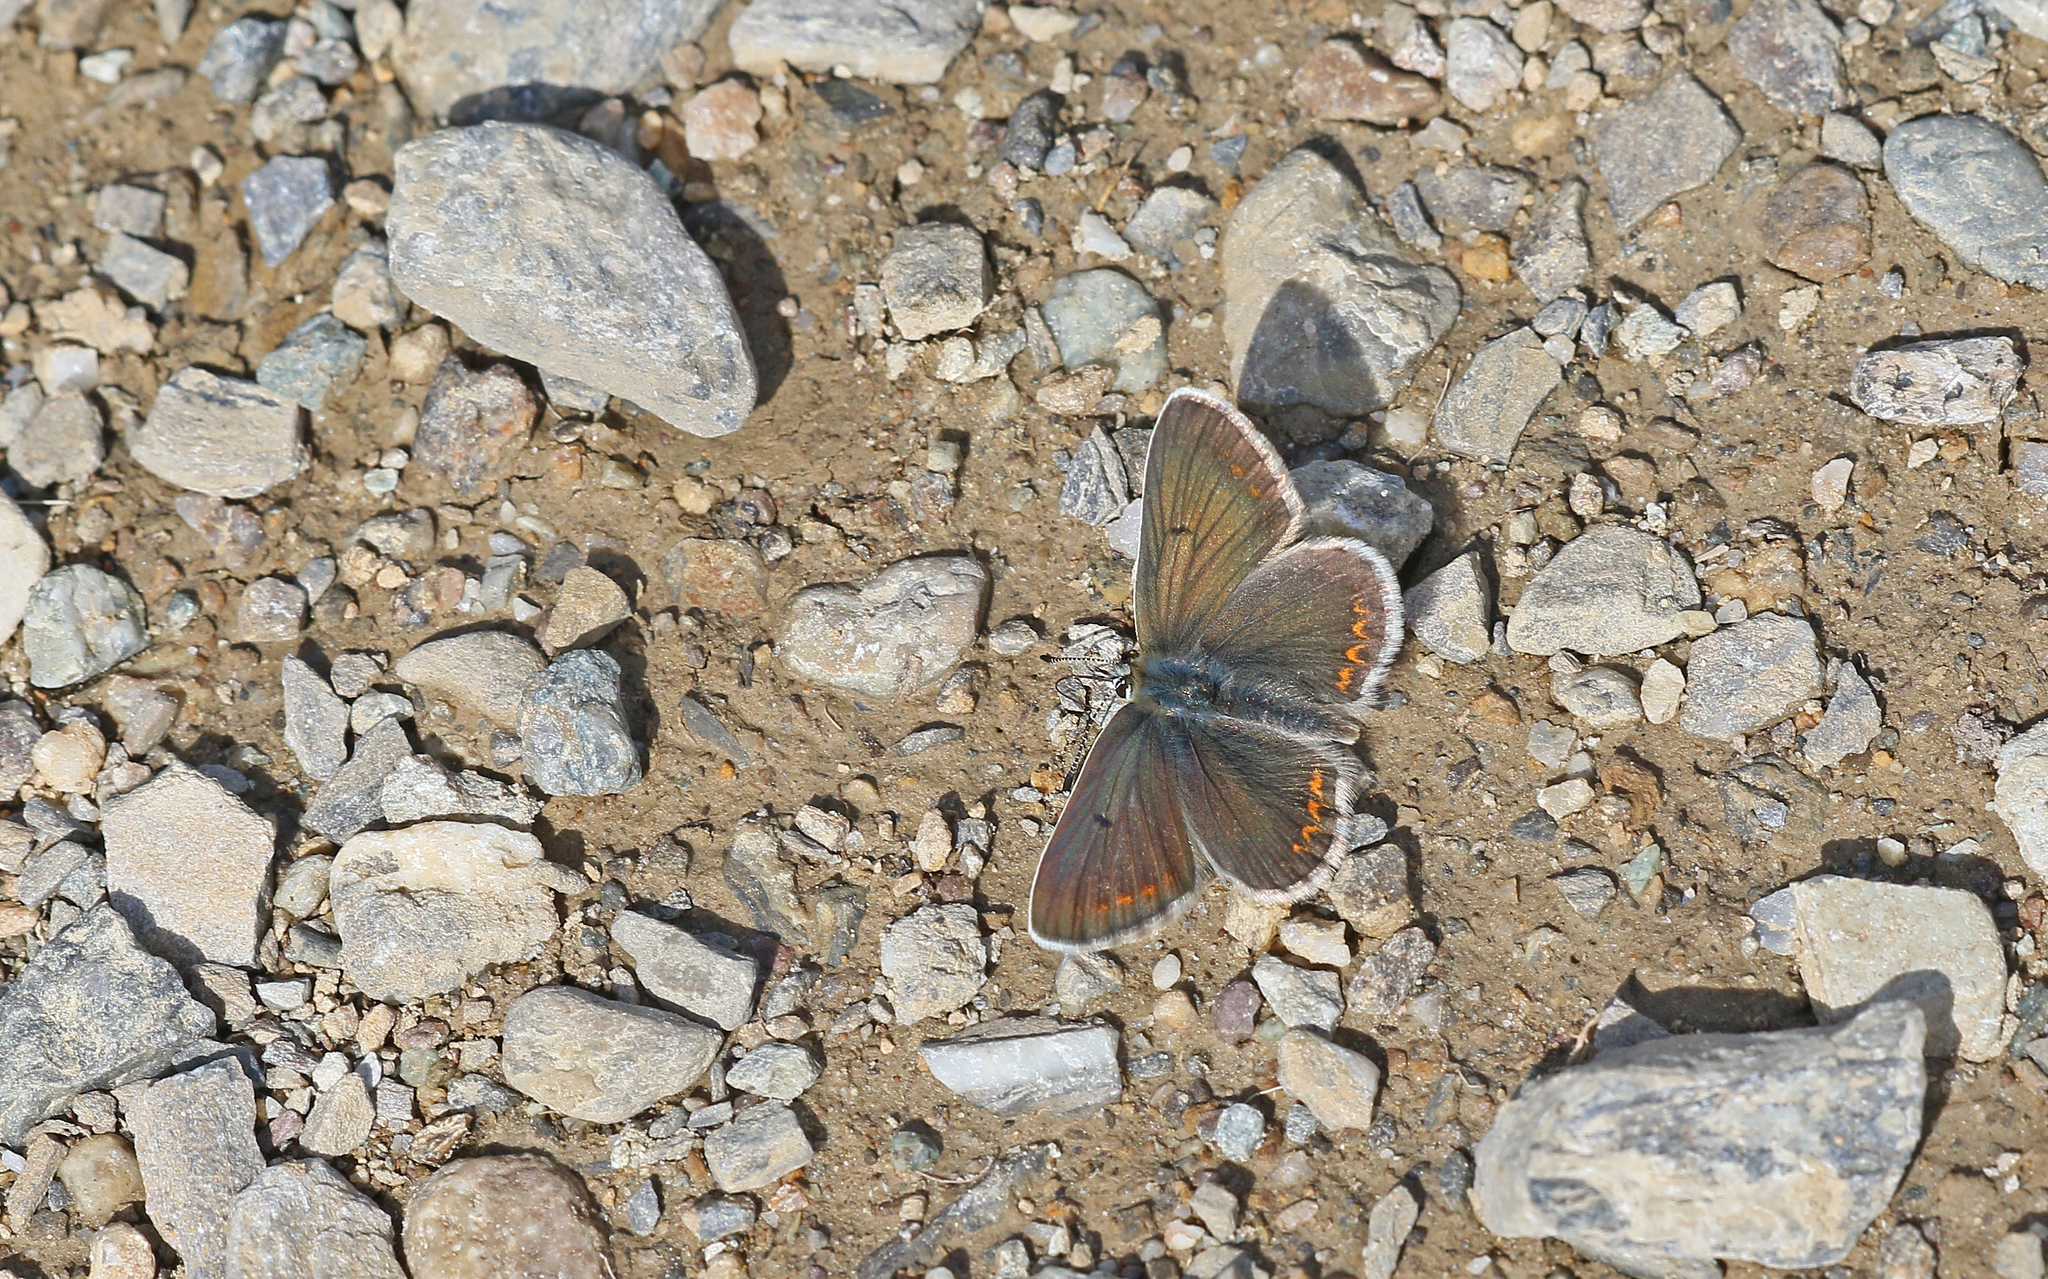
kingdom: Animalia
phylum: Arthropoda
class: Insecta
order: Lepidoptera
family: Lycaenidae
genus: Aricia
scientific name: Aricia artaxerxes
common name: Northern brown argus
